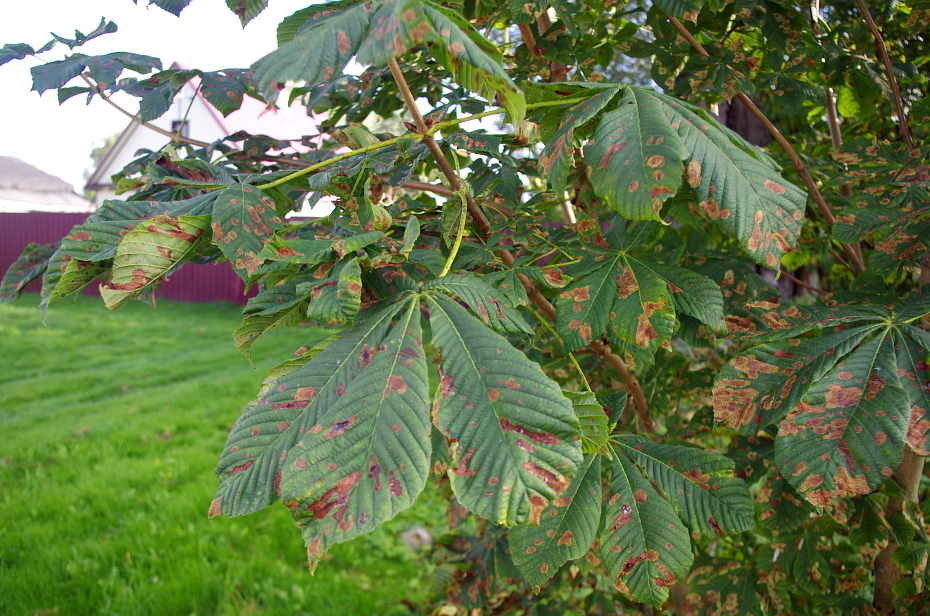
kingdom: Animalia
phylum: Arthropoda
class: Insecta
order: Lepidoptera
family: Gracillariidae
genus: Cameraria
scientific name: Cameraria ohridella
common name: Horse-chestnut leaf-miner
